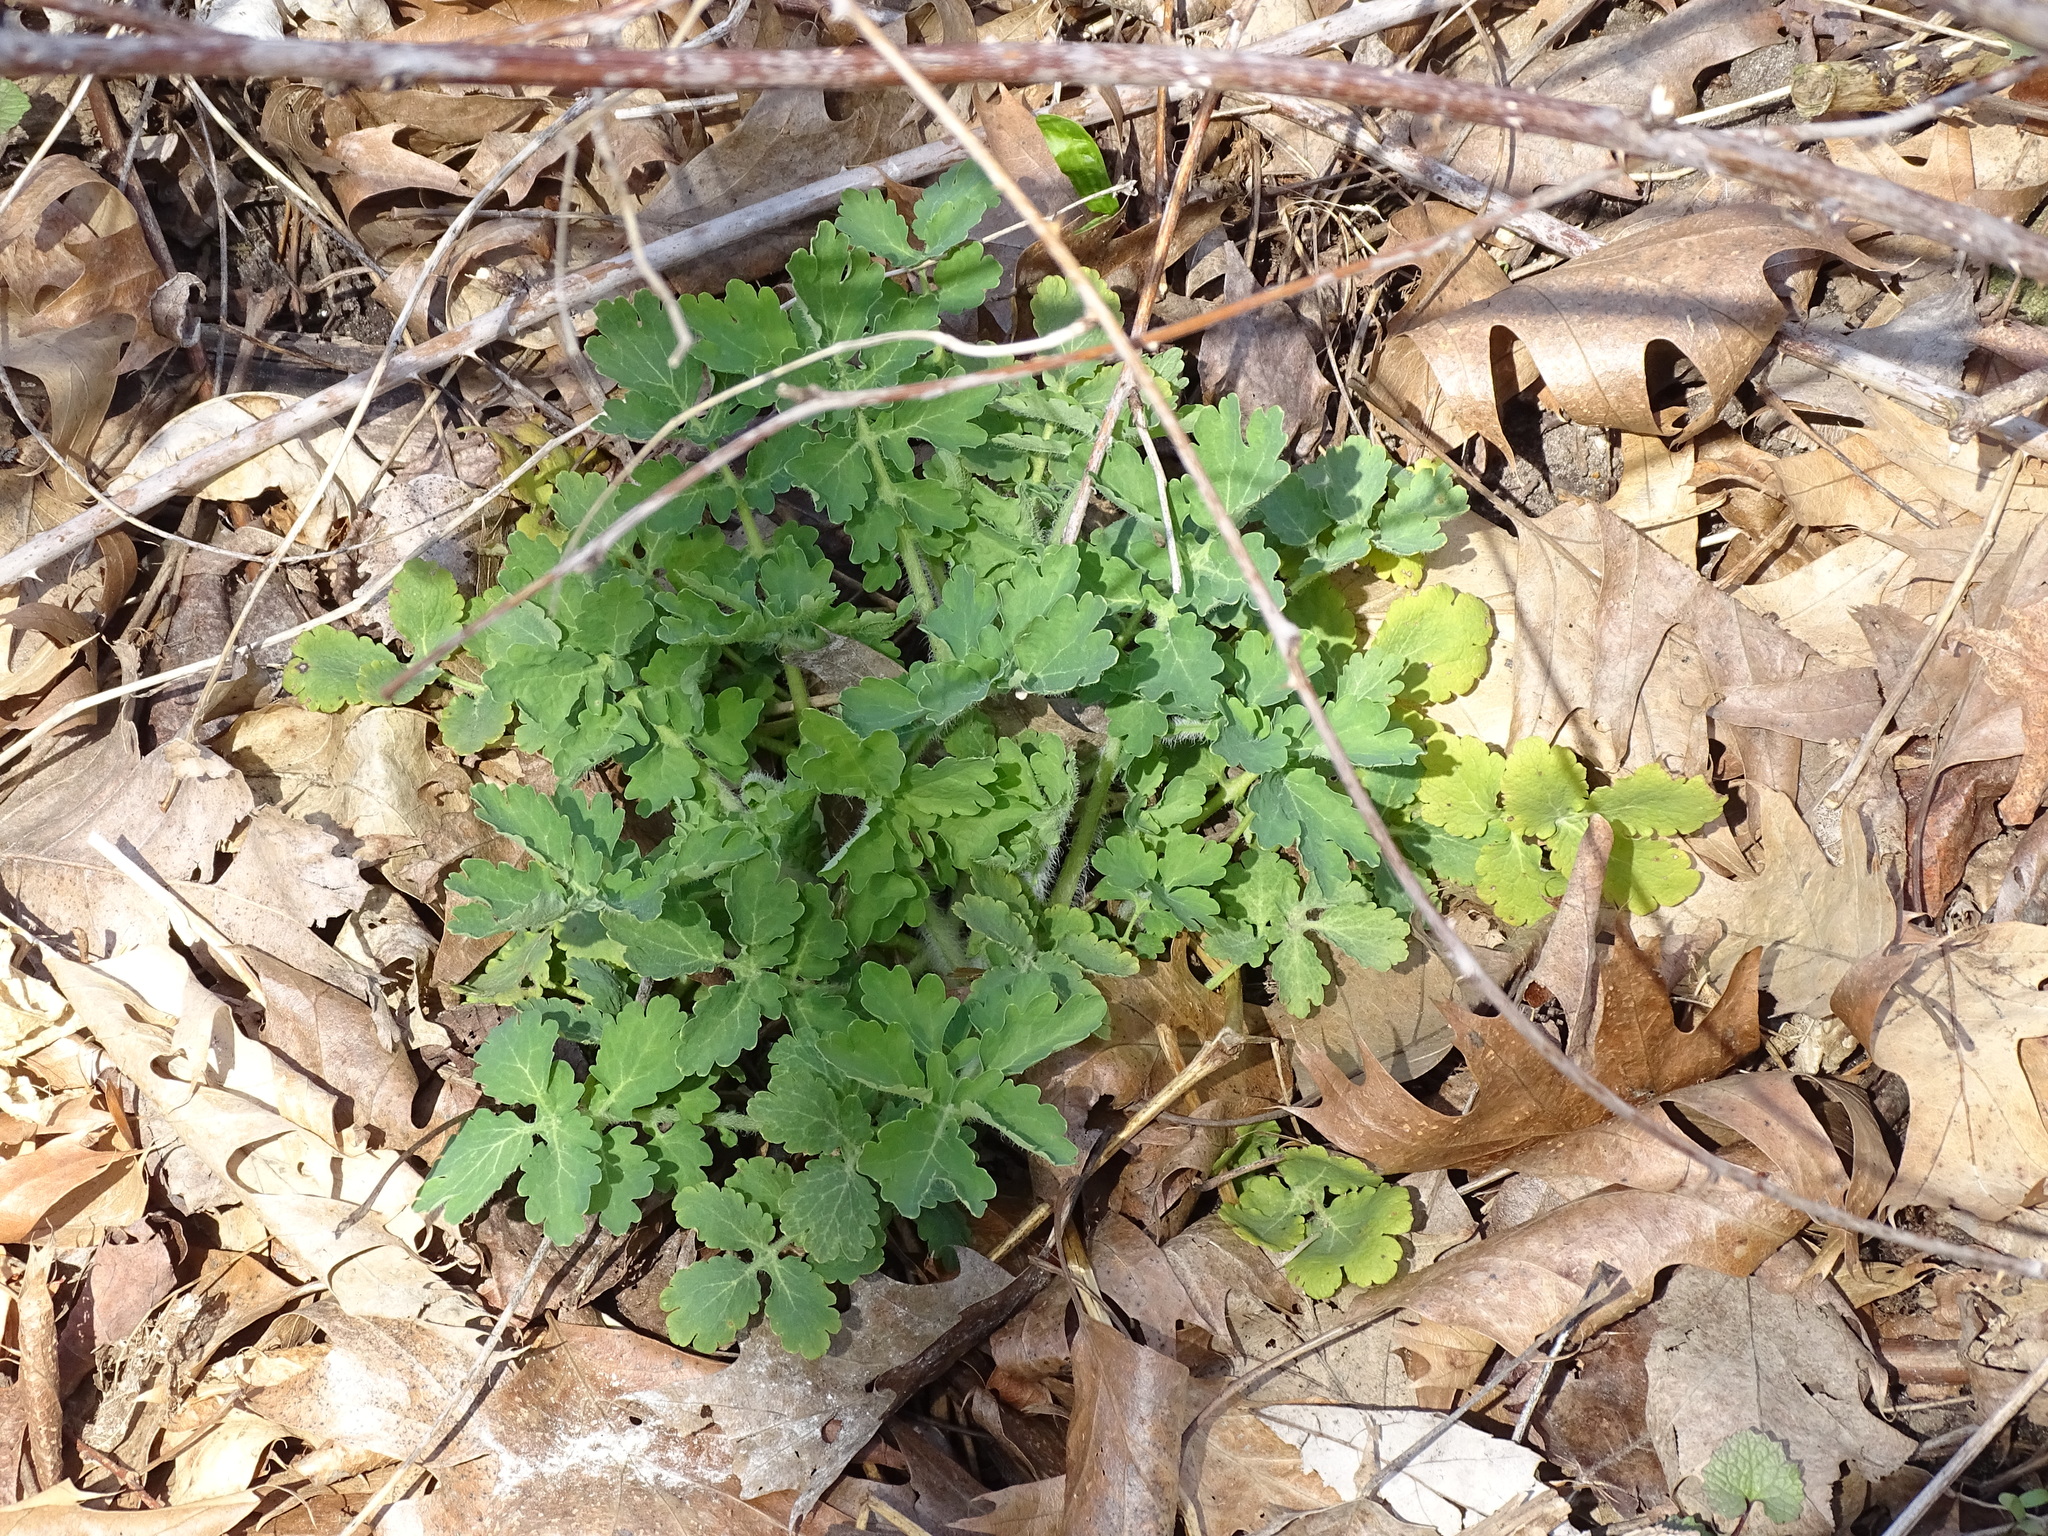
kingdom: Plantae
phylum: Tracheophyta
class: Magnoliopsida
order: Ranunculales
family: Papaveraceae
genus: Chelidonium
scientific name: Chelidonium majus
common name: Greater celandine
